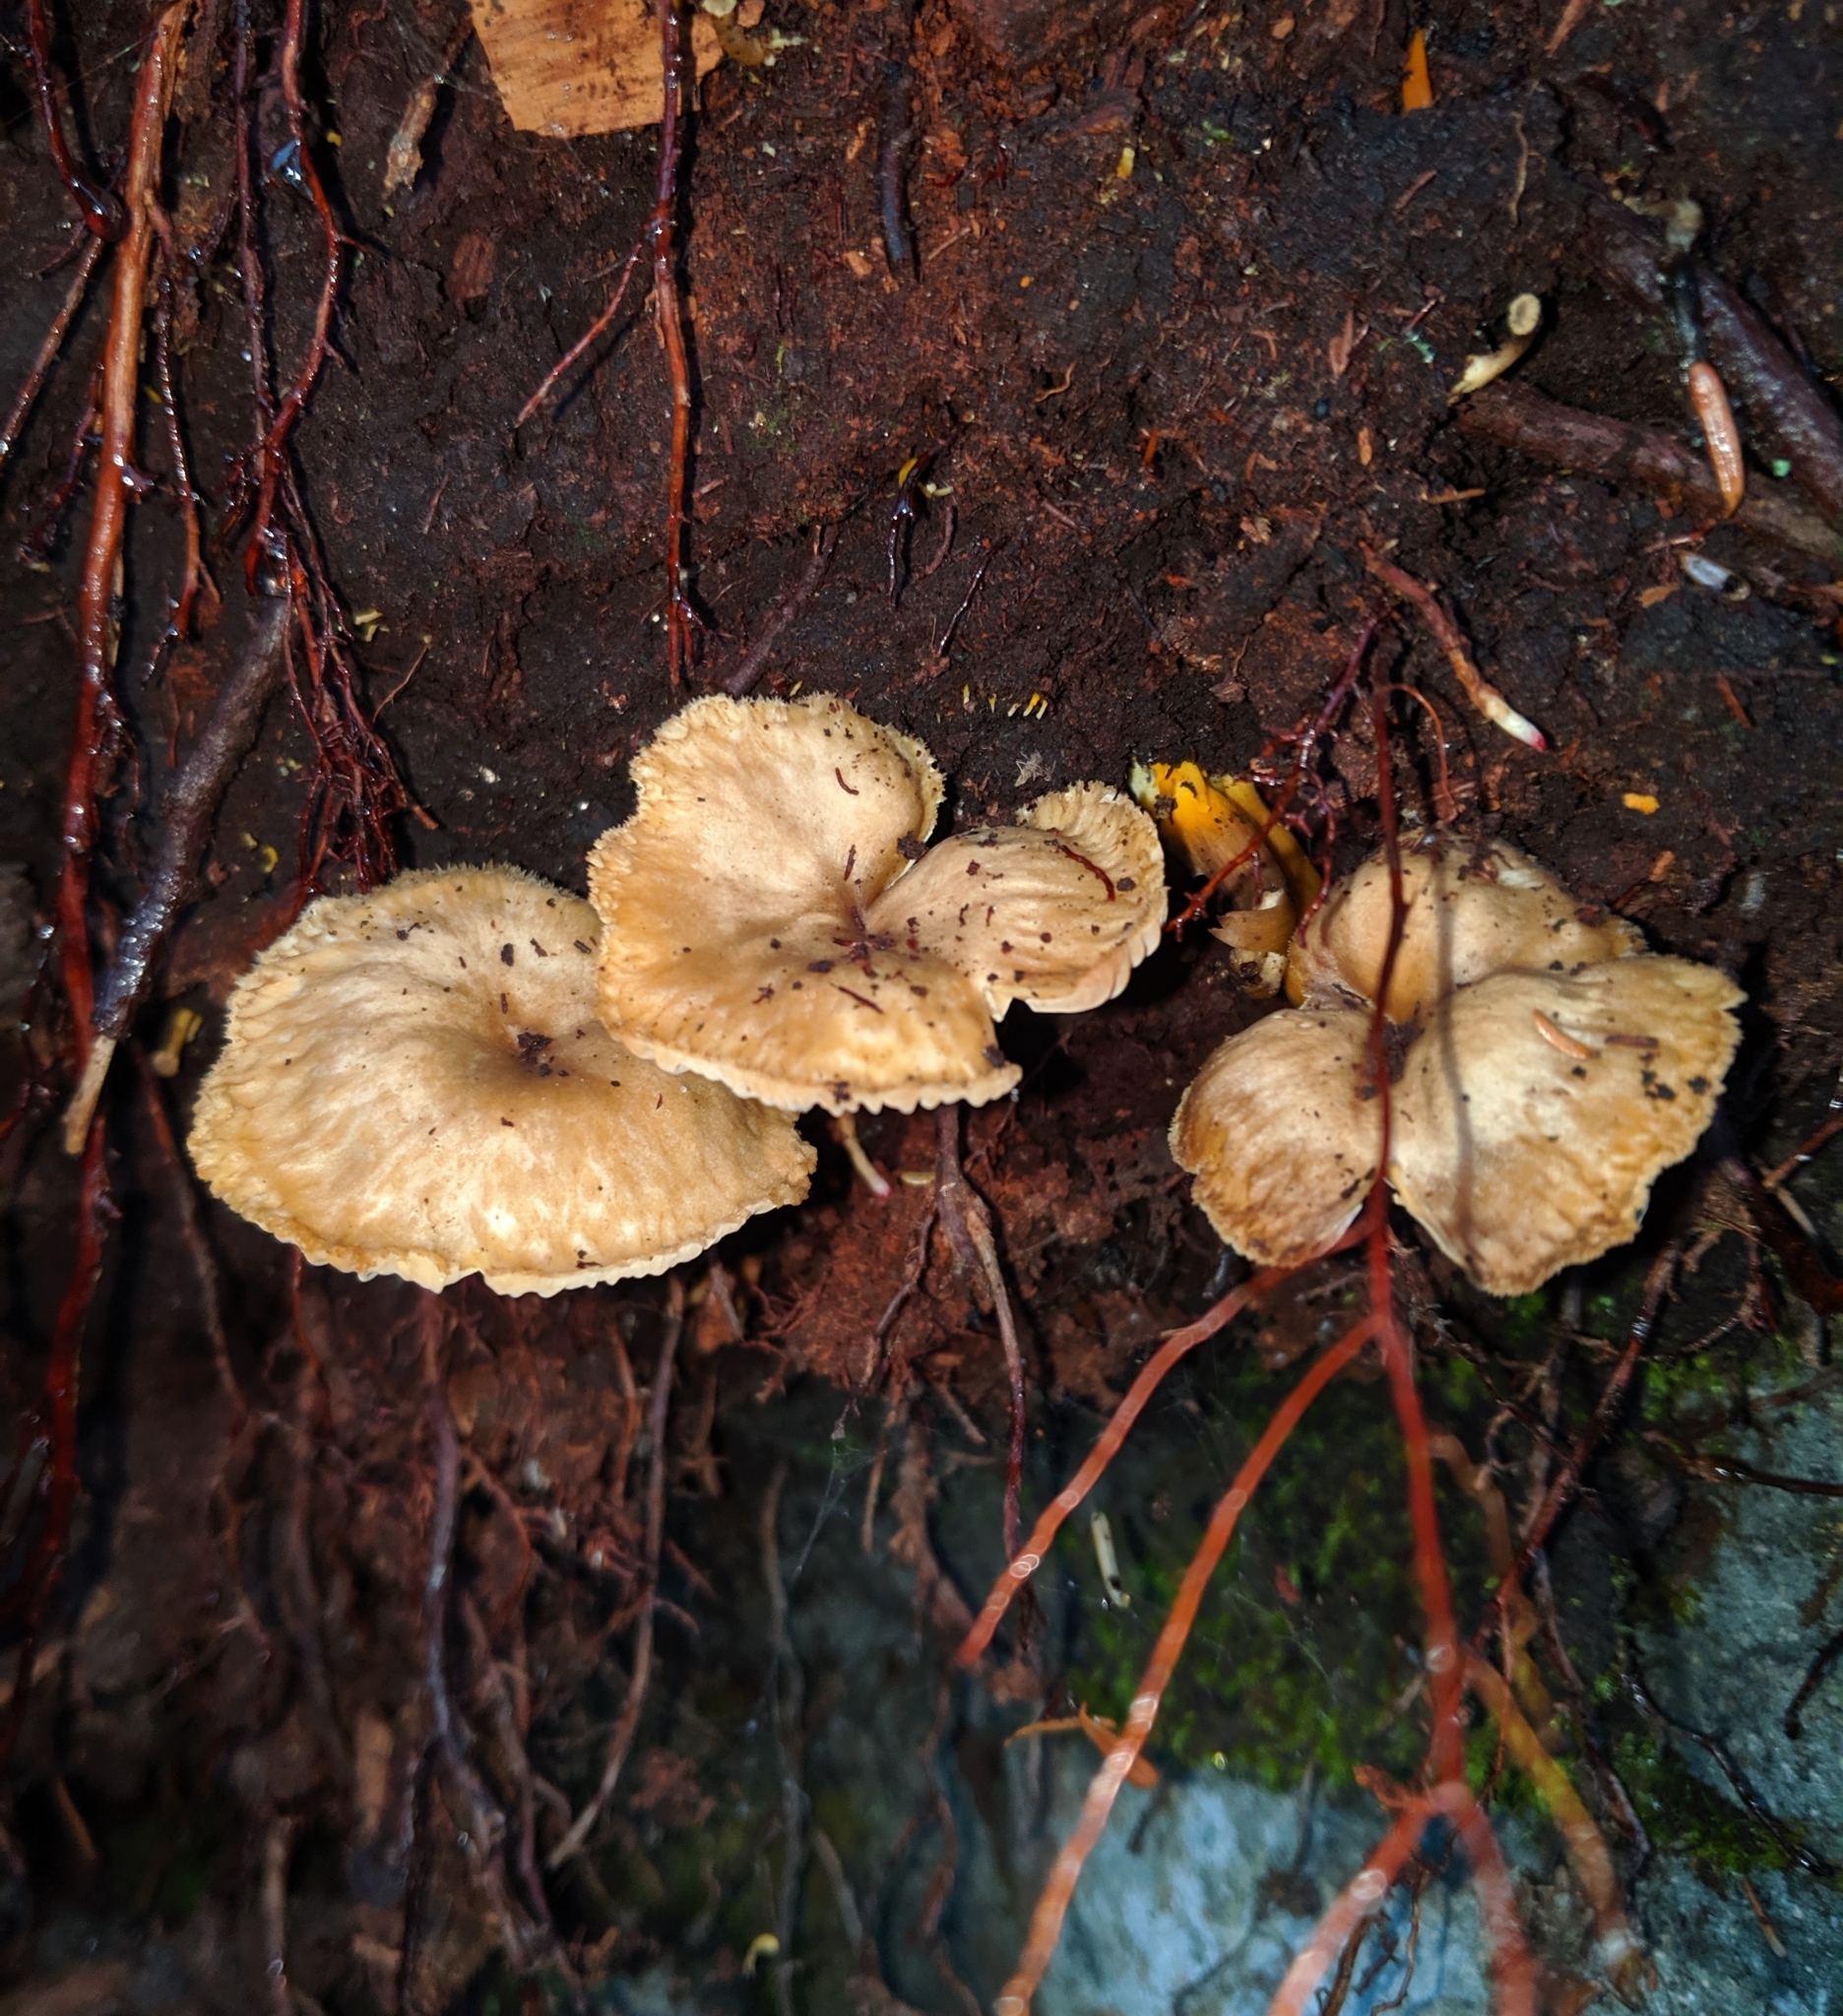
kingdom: Fungi
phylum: Basidiomycota
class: Agaricomycetes
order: Cantharellales
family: Hydnaceae
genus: Craterellus
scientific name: Craterellus tubaeformis
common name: Yellowfoot
